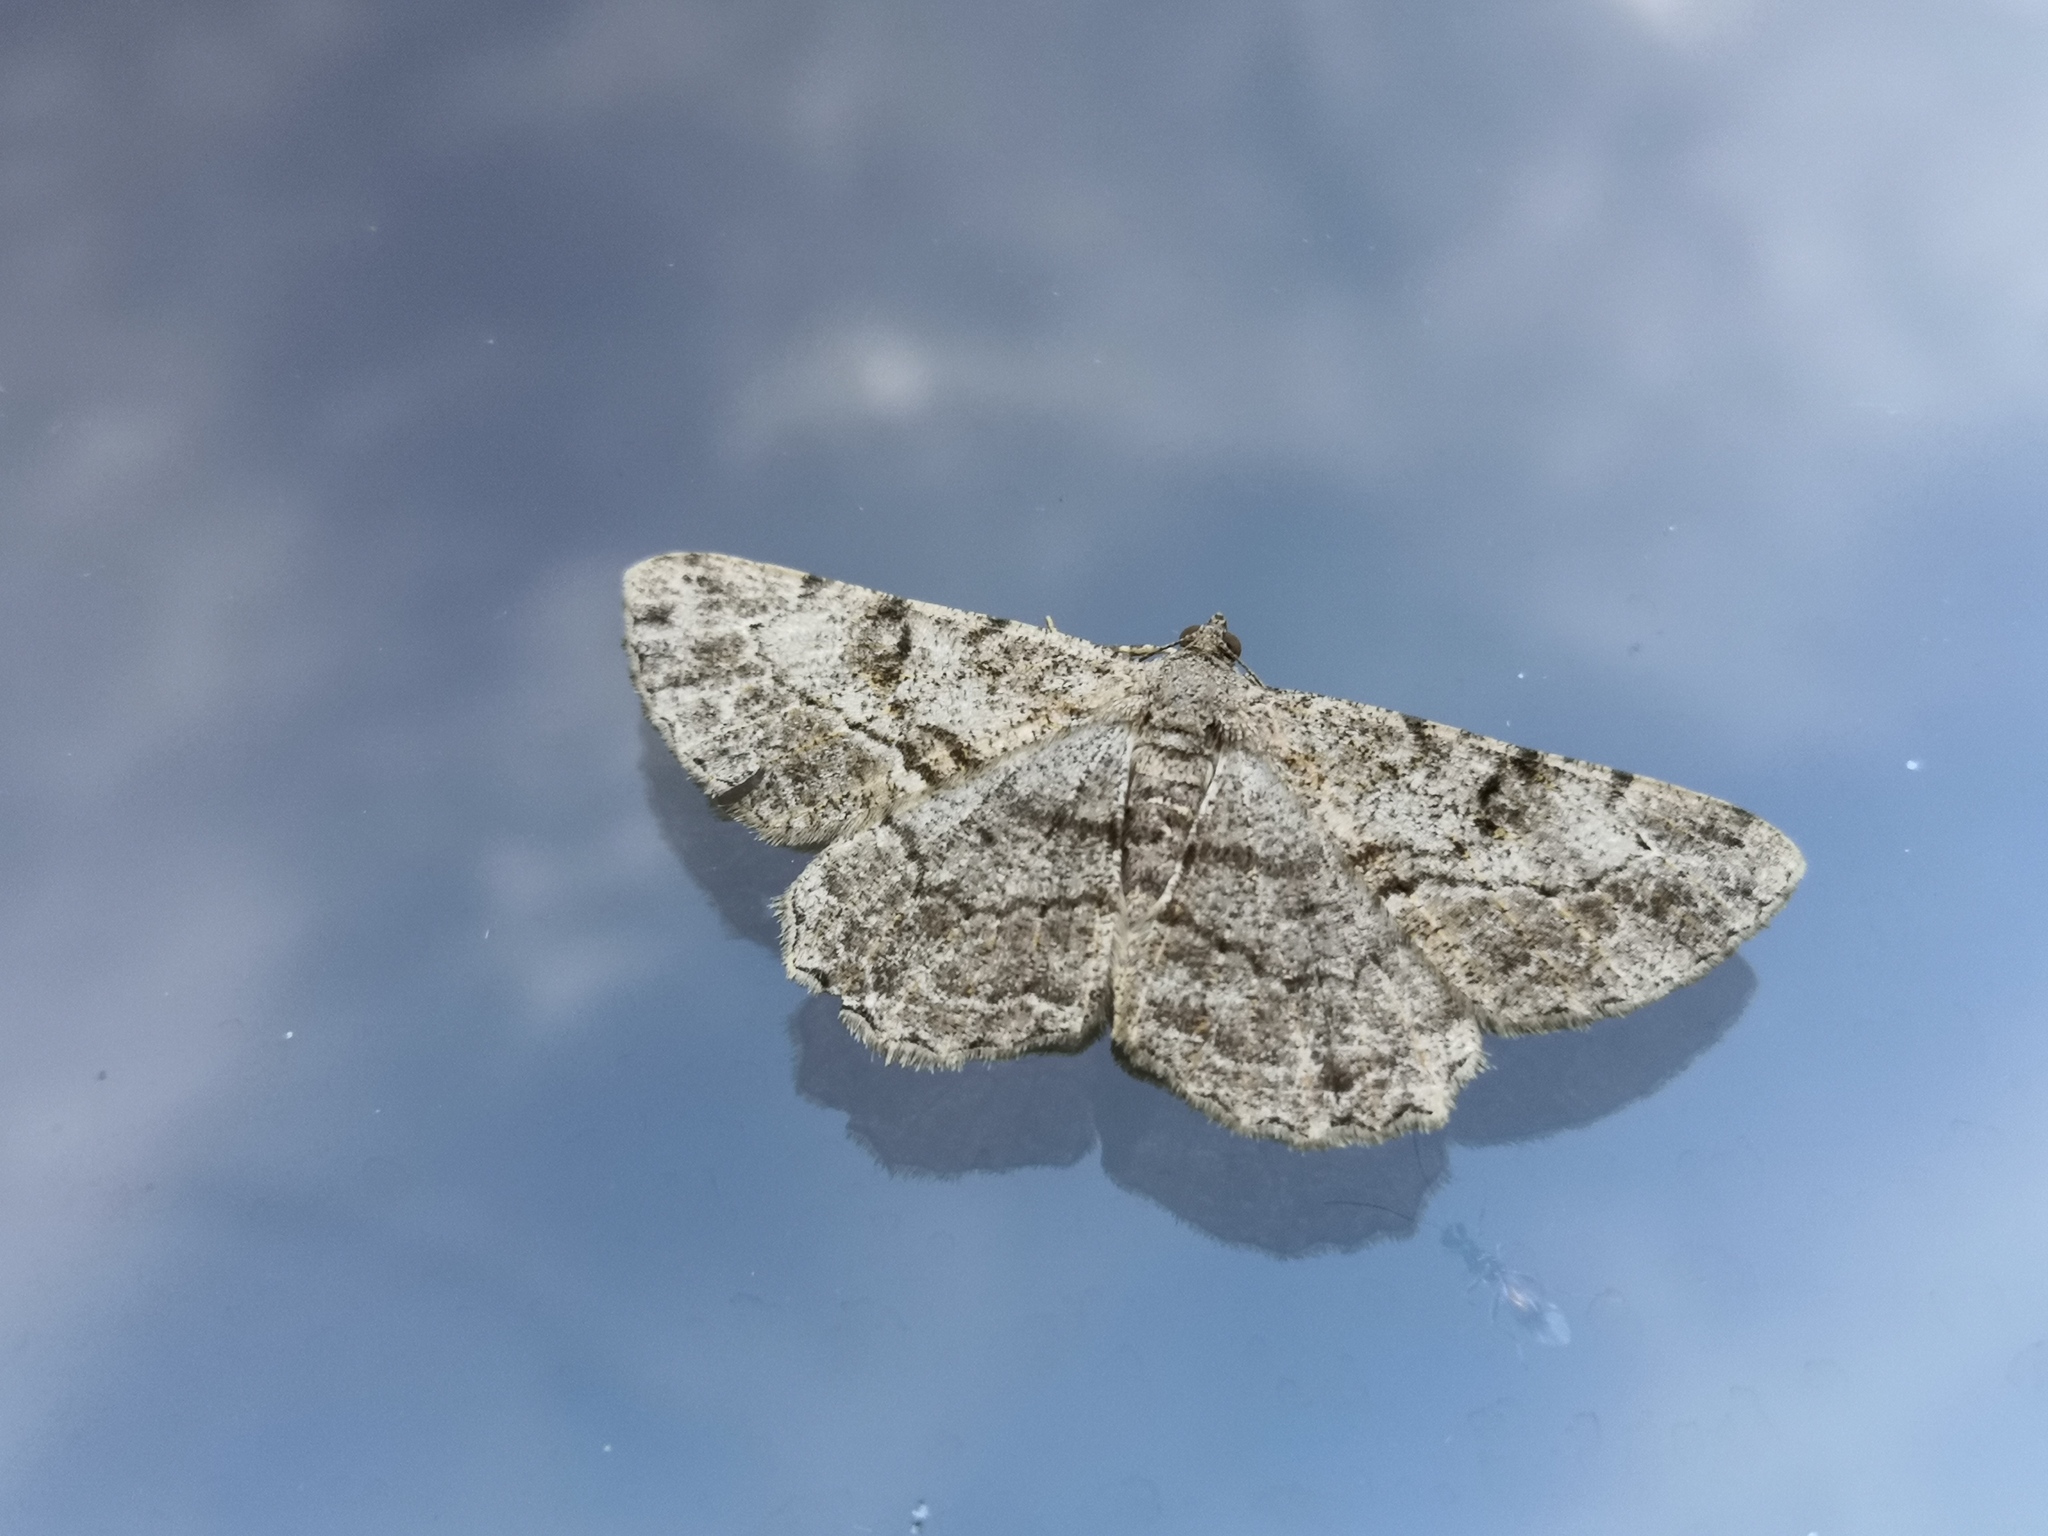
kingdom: Animalia
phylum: Arthropoda
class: Insecta
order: Lepidoptera
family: Geometridae
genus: Peribatodes
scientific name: Peribatodes rhomboidaria
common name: Willow beauty
